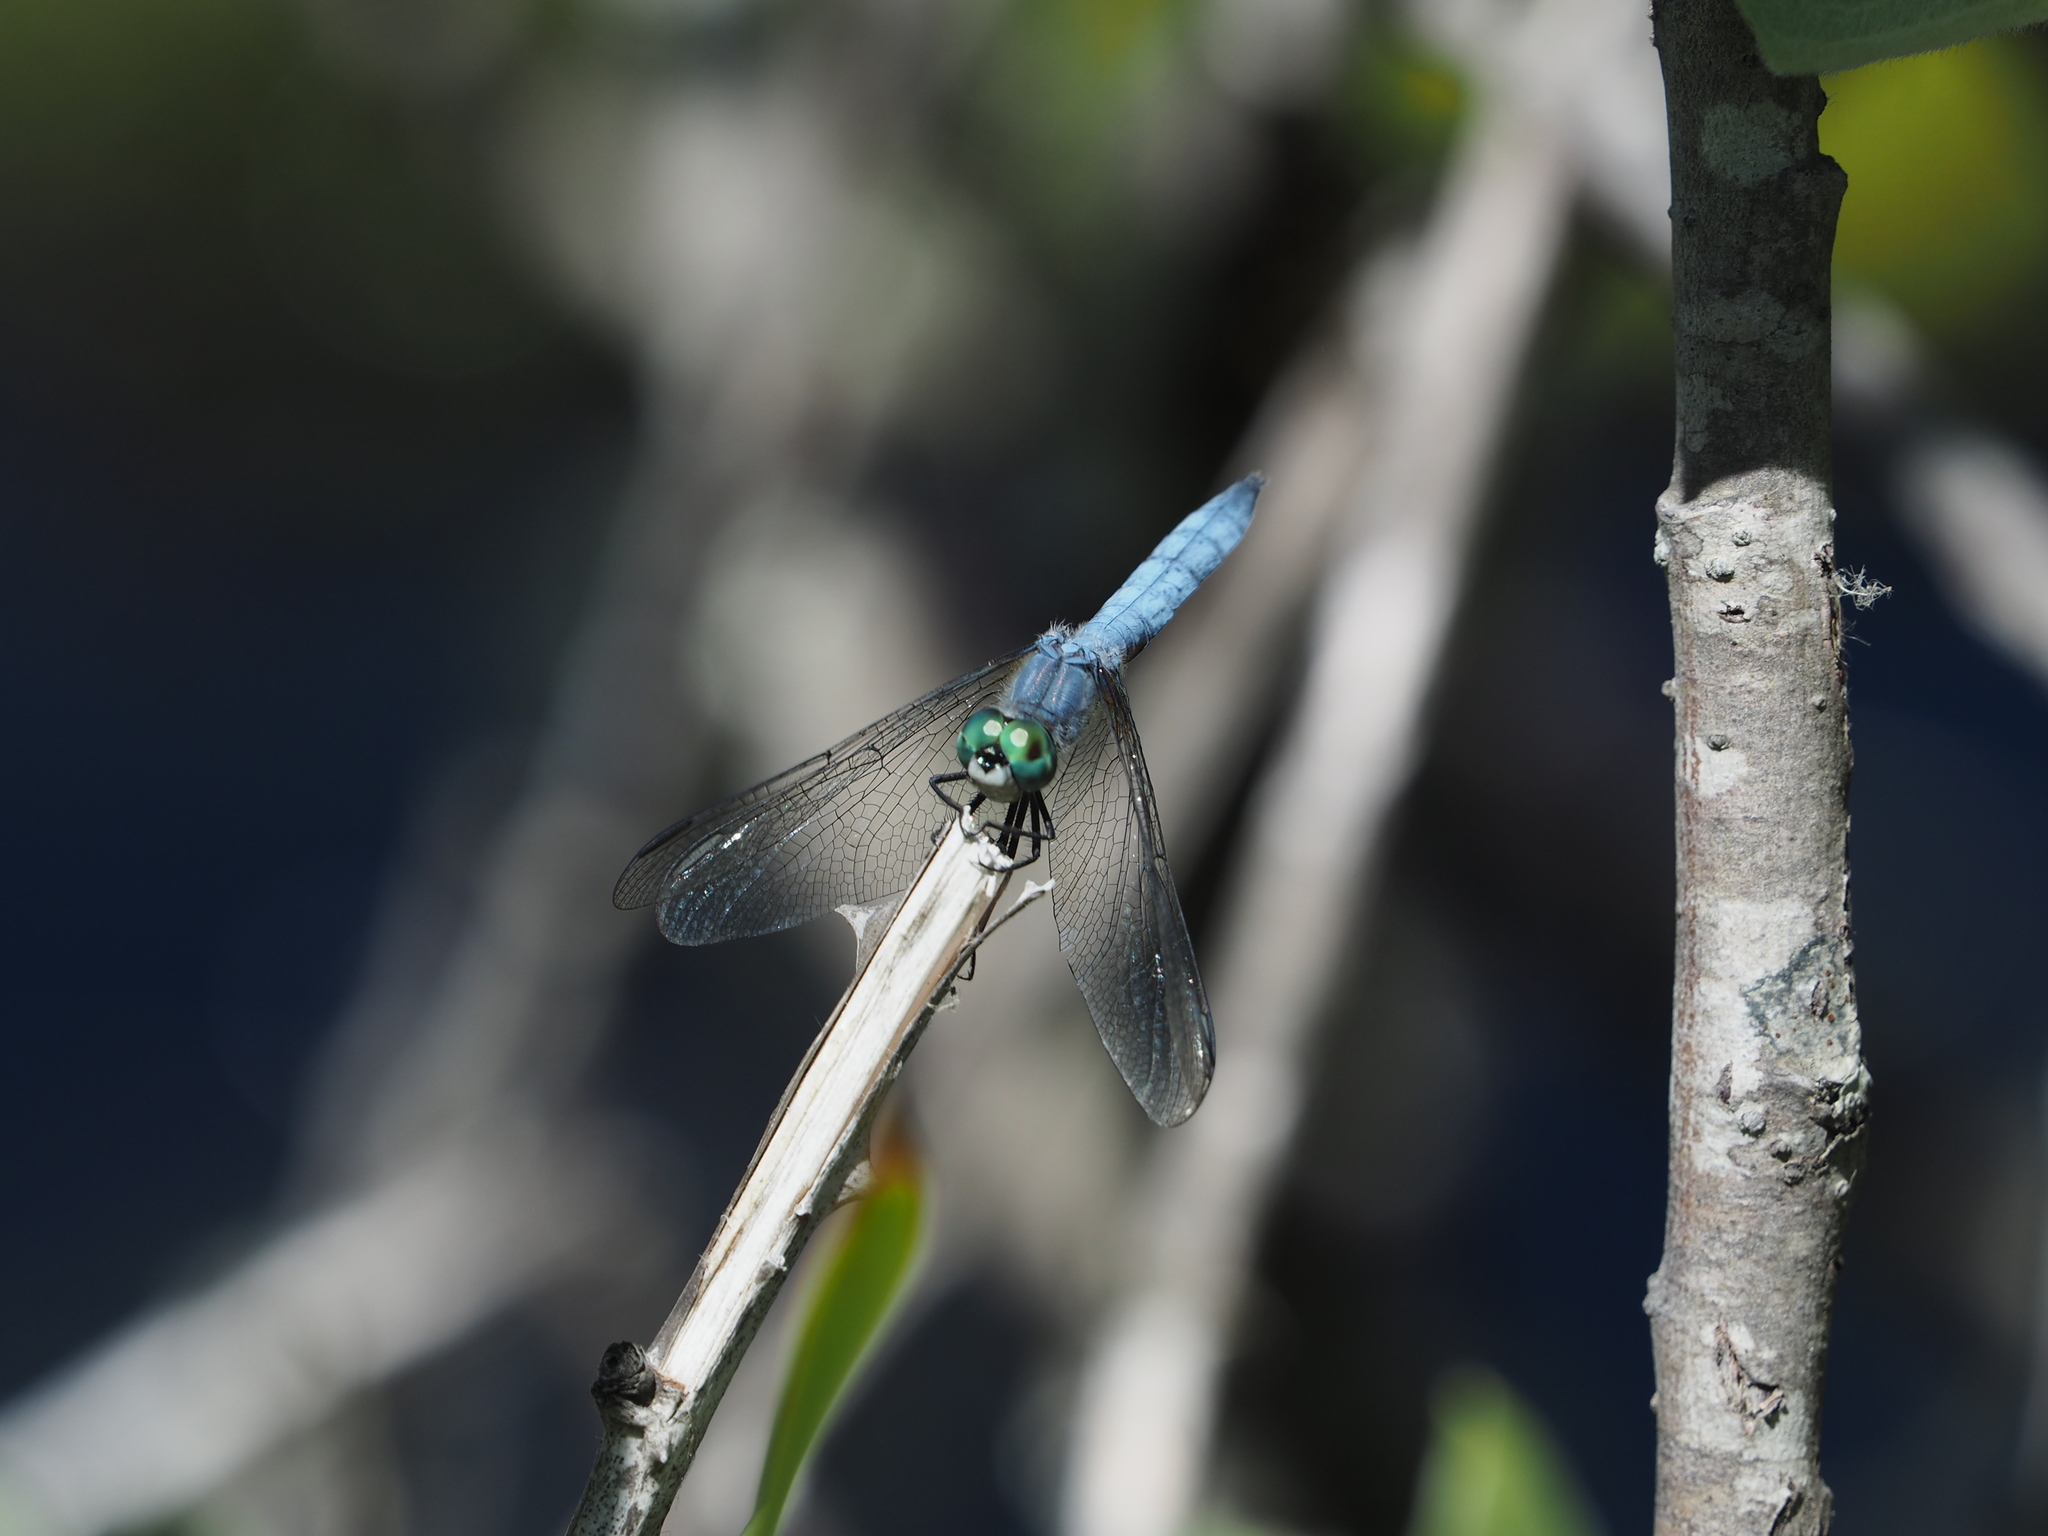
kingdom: Animalia
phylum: Arthropoda
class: Insecta
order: Odonata
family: Libellulidae
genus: Pachydiplax
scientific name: Pachydiplax longipennis
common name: Blue dasher
